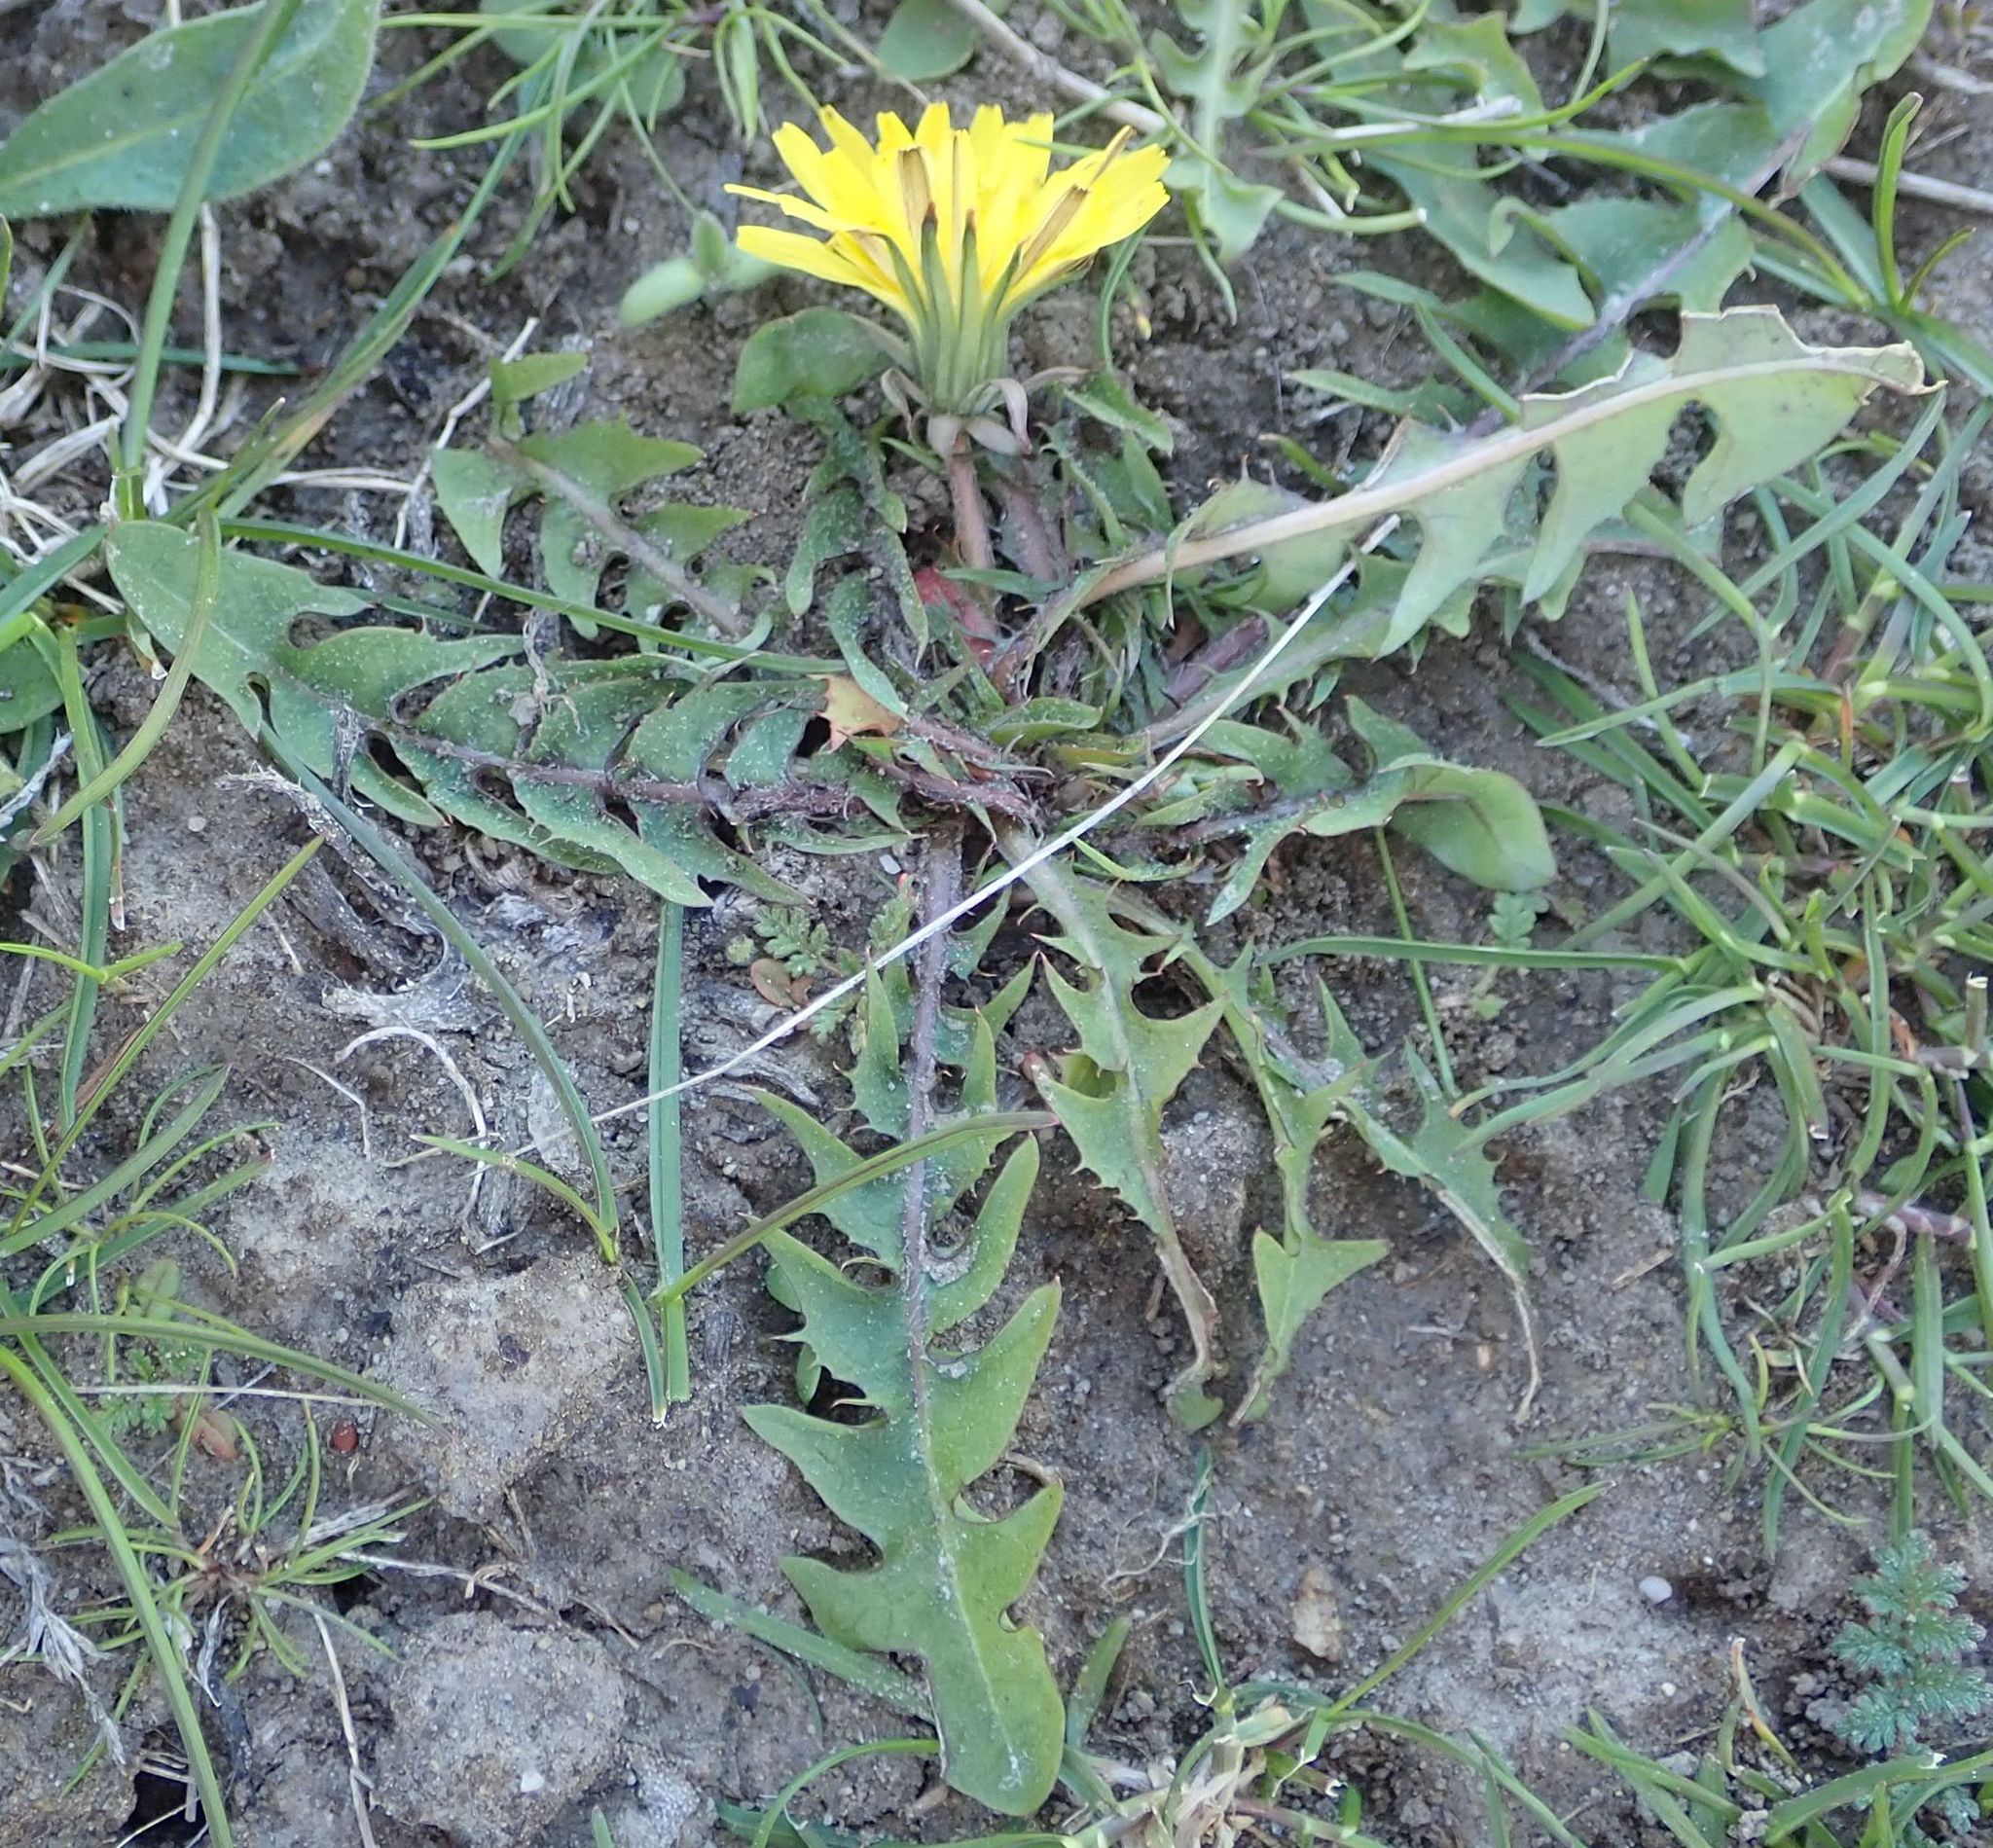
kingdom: Plantae
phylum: Tracheophyta
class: Magnoliopsida
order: Asterales
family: Asteraceae
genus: Taraxacum
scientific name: Taraxacum officinale
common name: Common dandelion
